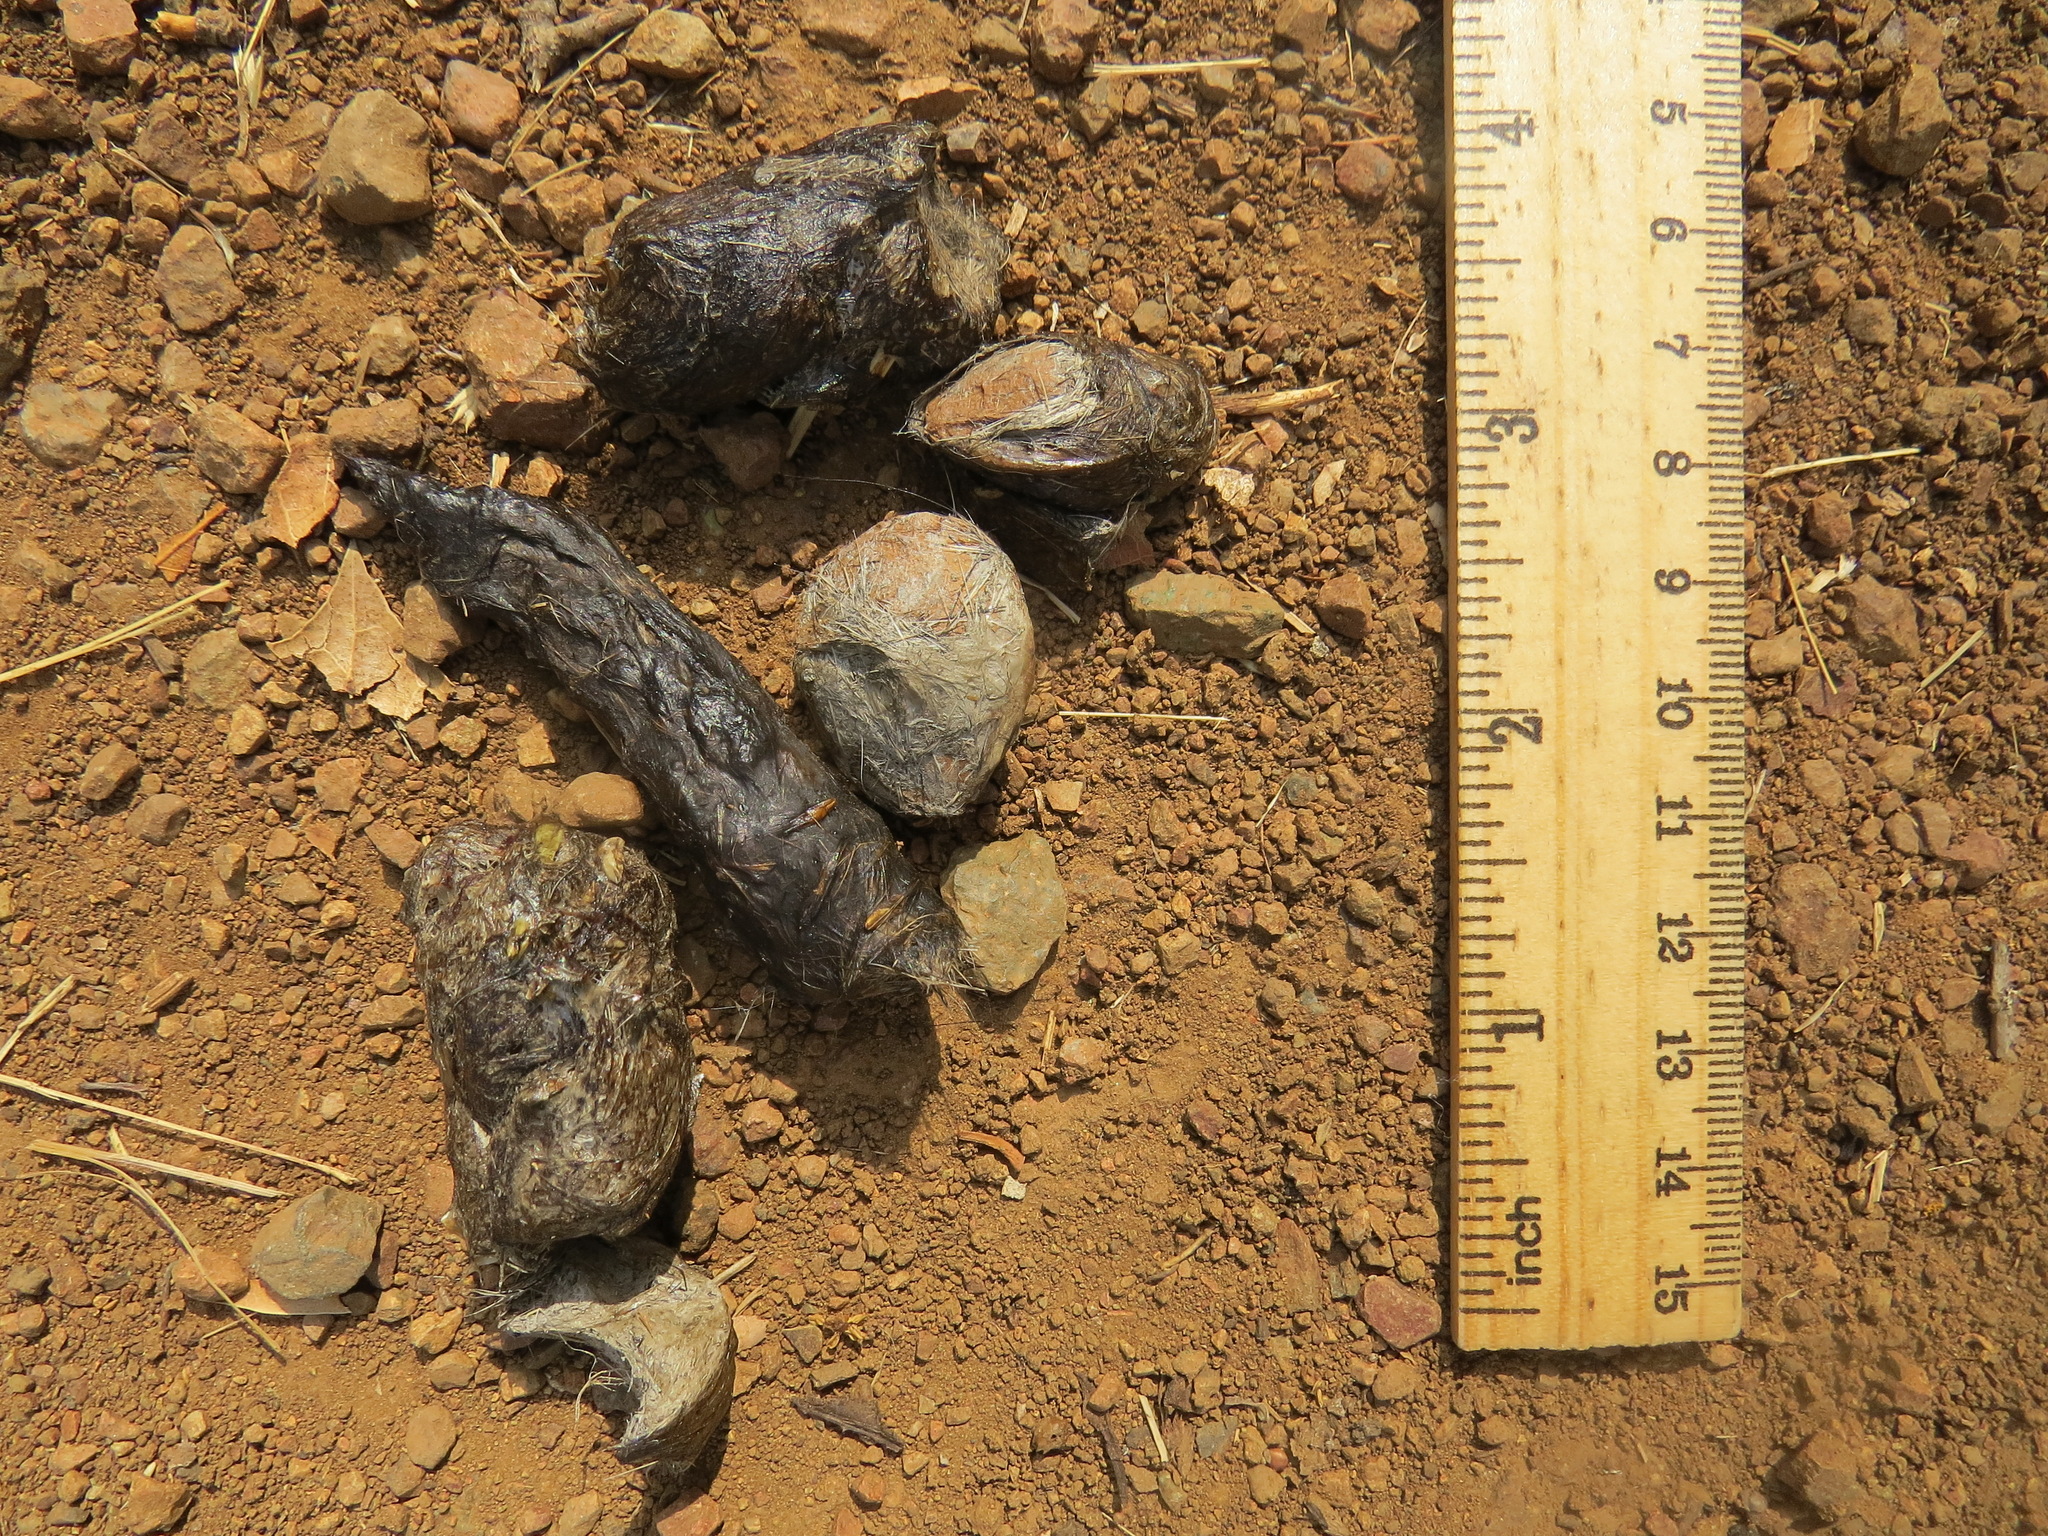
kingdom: Animalia
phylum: Chordata
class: Mammalia
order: Carnivora
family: Felidae
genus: Lynx
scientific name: Lynx rufus
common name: Bobcat
